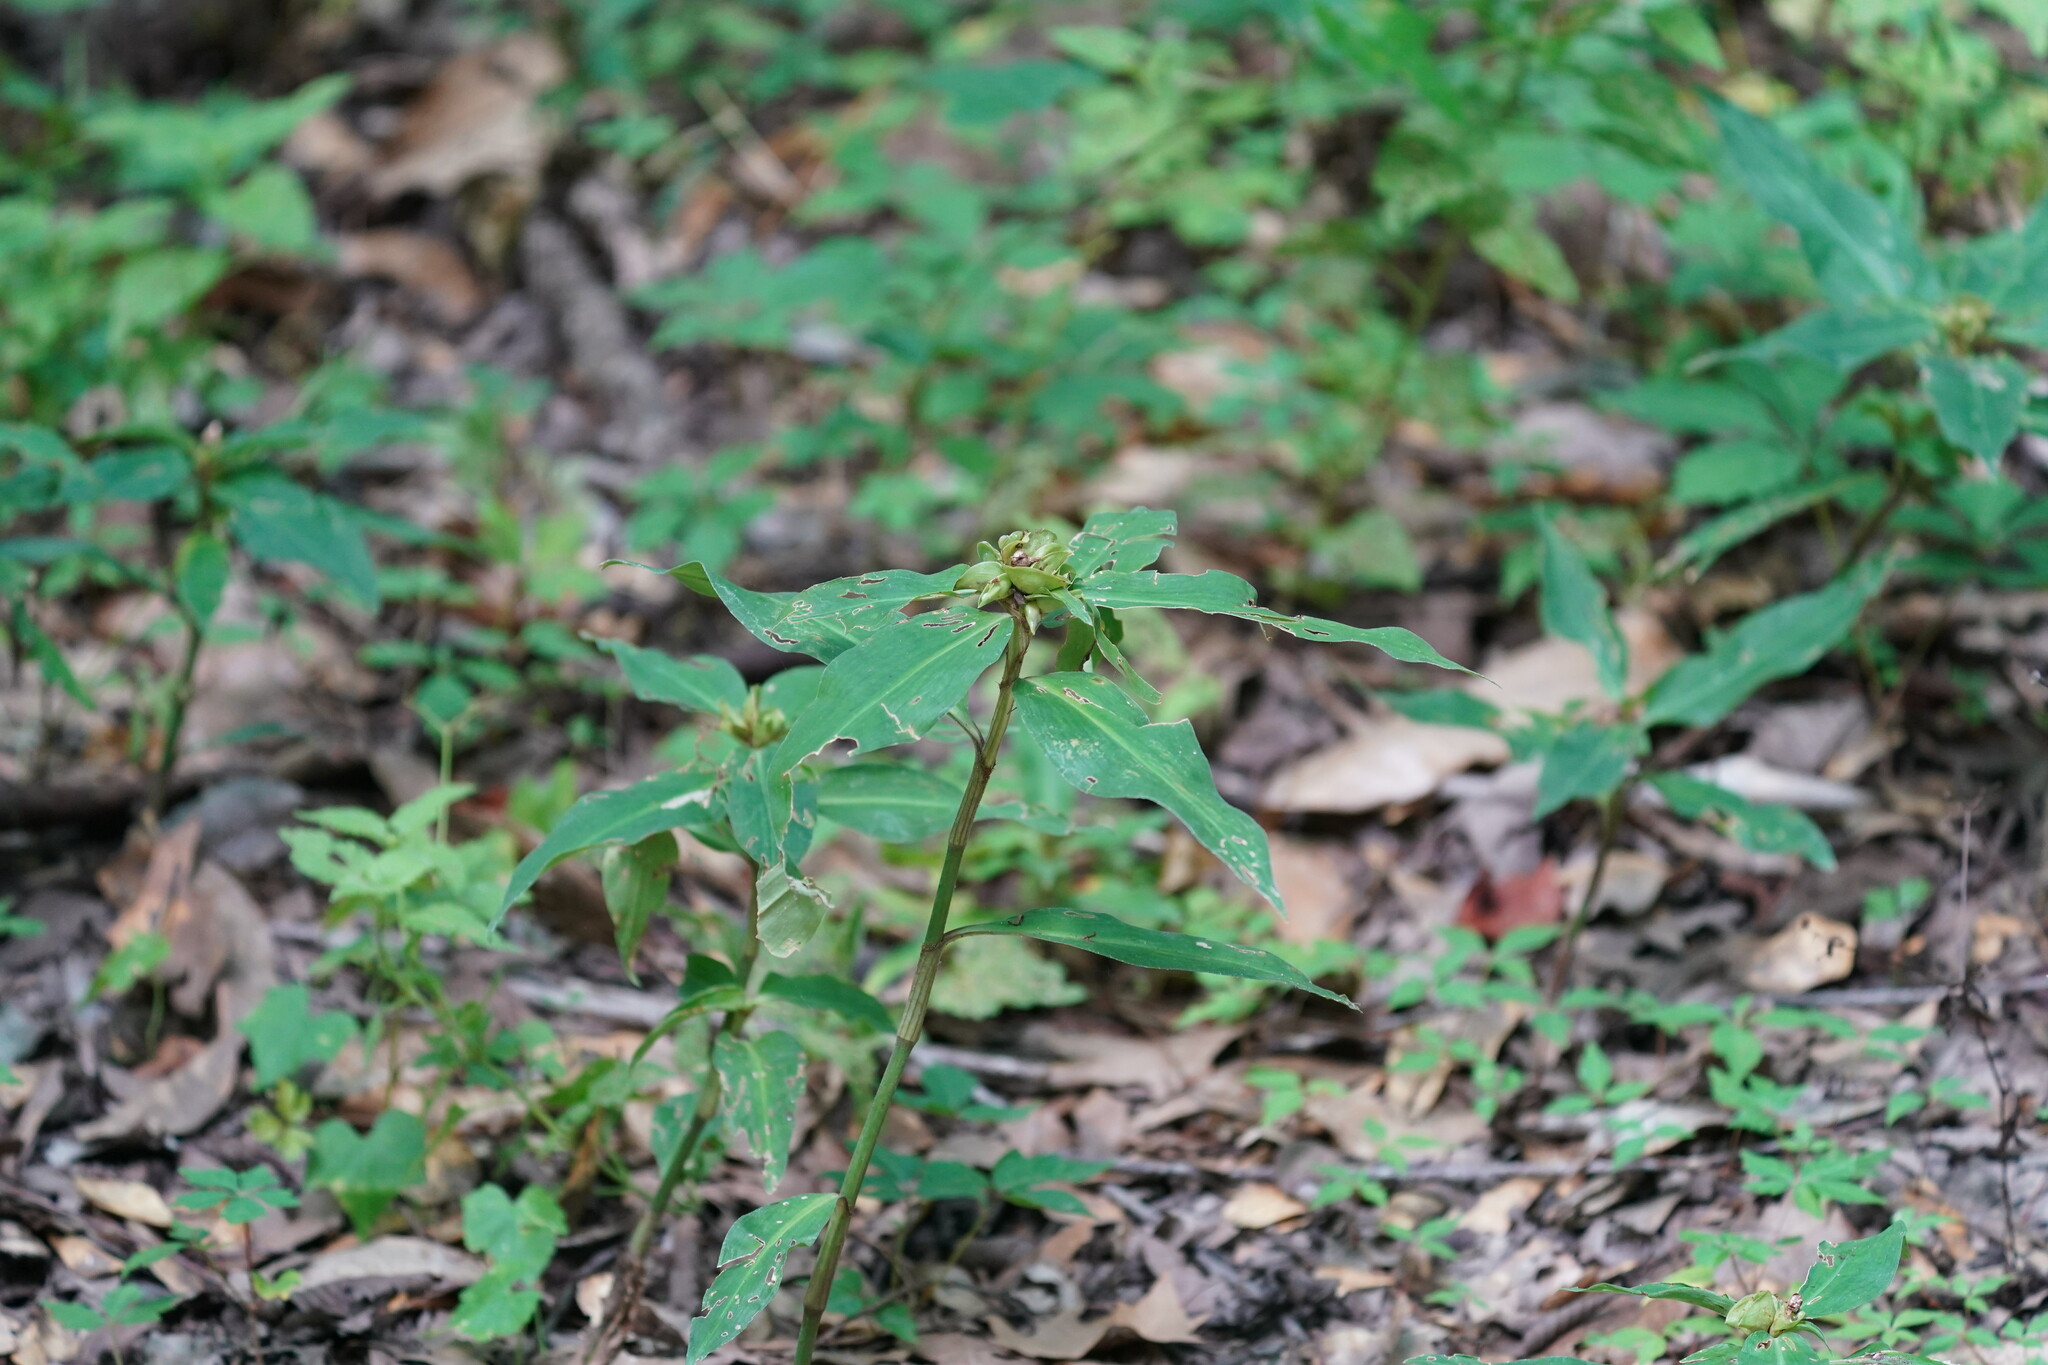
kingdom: Plantae
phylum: Tracheophyta
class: Liliopsida
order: Commelinales
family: Commelinaceae
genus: Commelina
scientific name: Commelina virginica
